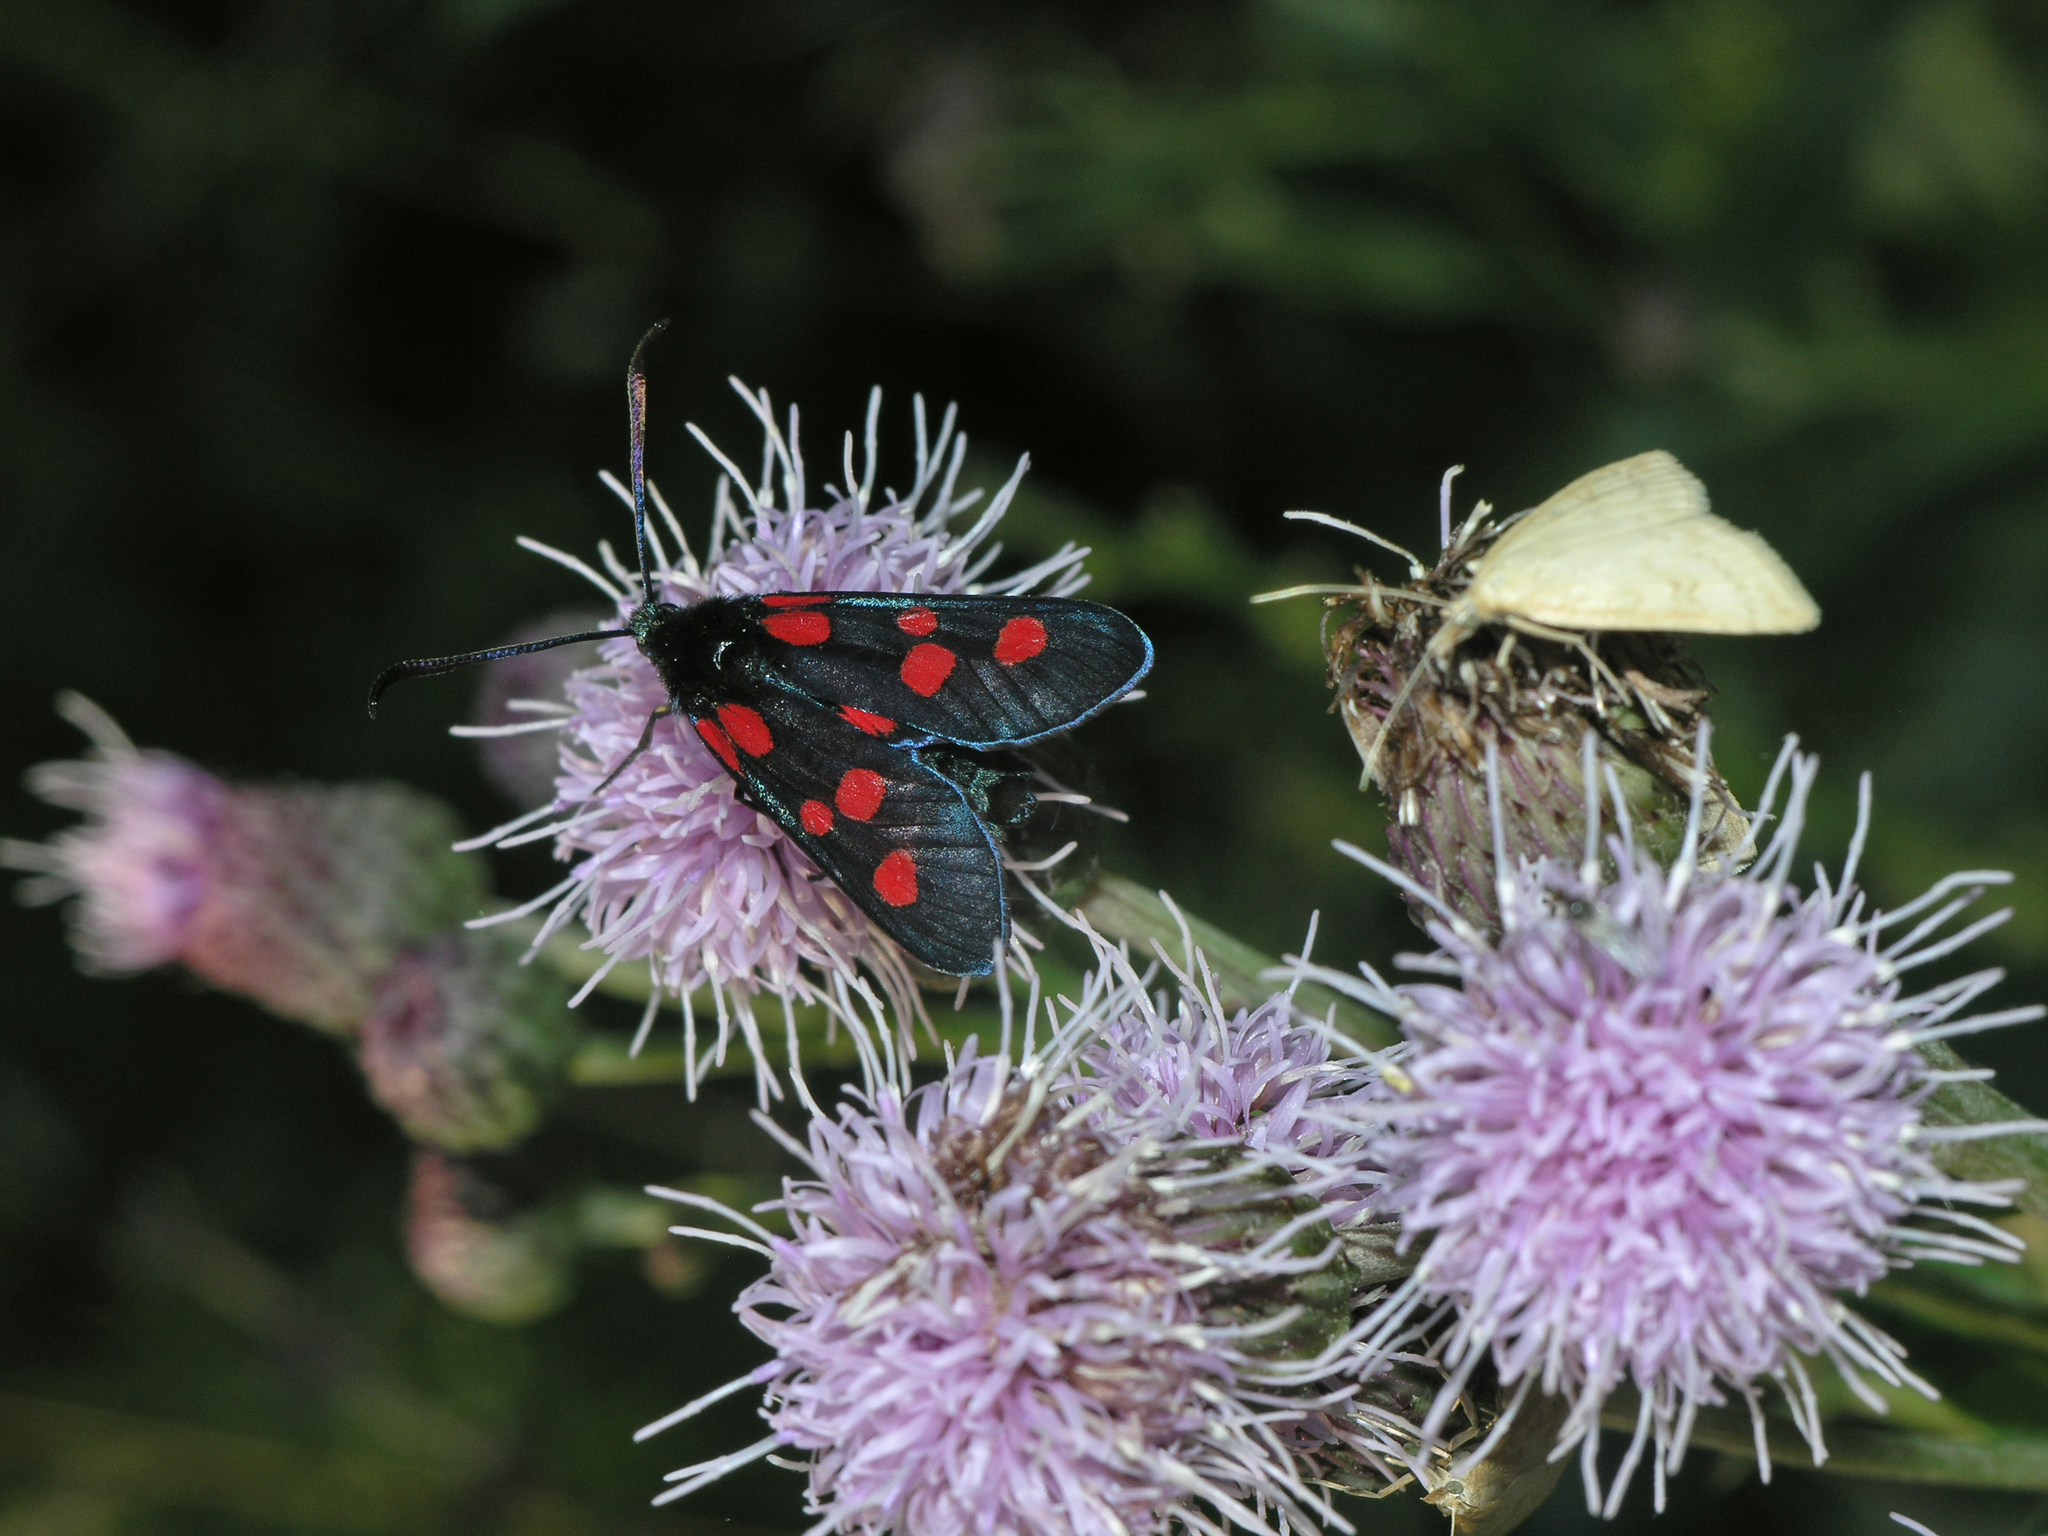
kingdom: Animalia
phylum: Arthropoda
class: Insecta
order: Lepidoptera
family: Zygaenidae
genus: Zygaena
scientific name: Zygaena lonicerae
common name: Narrow-bordered five-spot burnet
